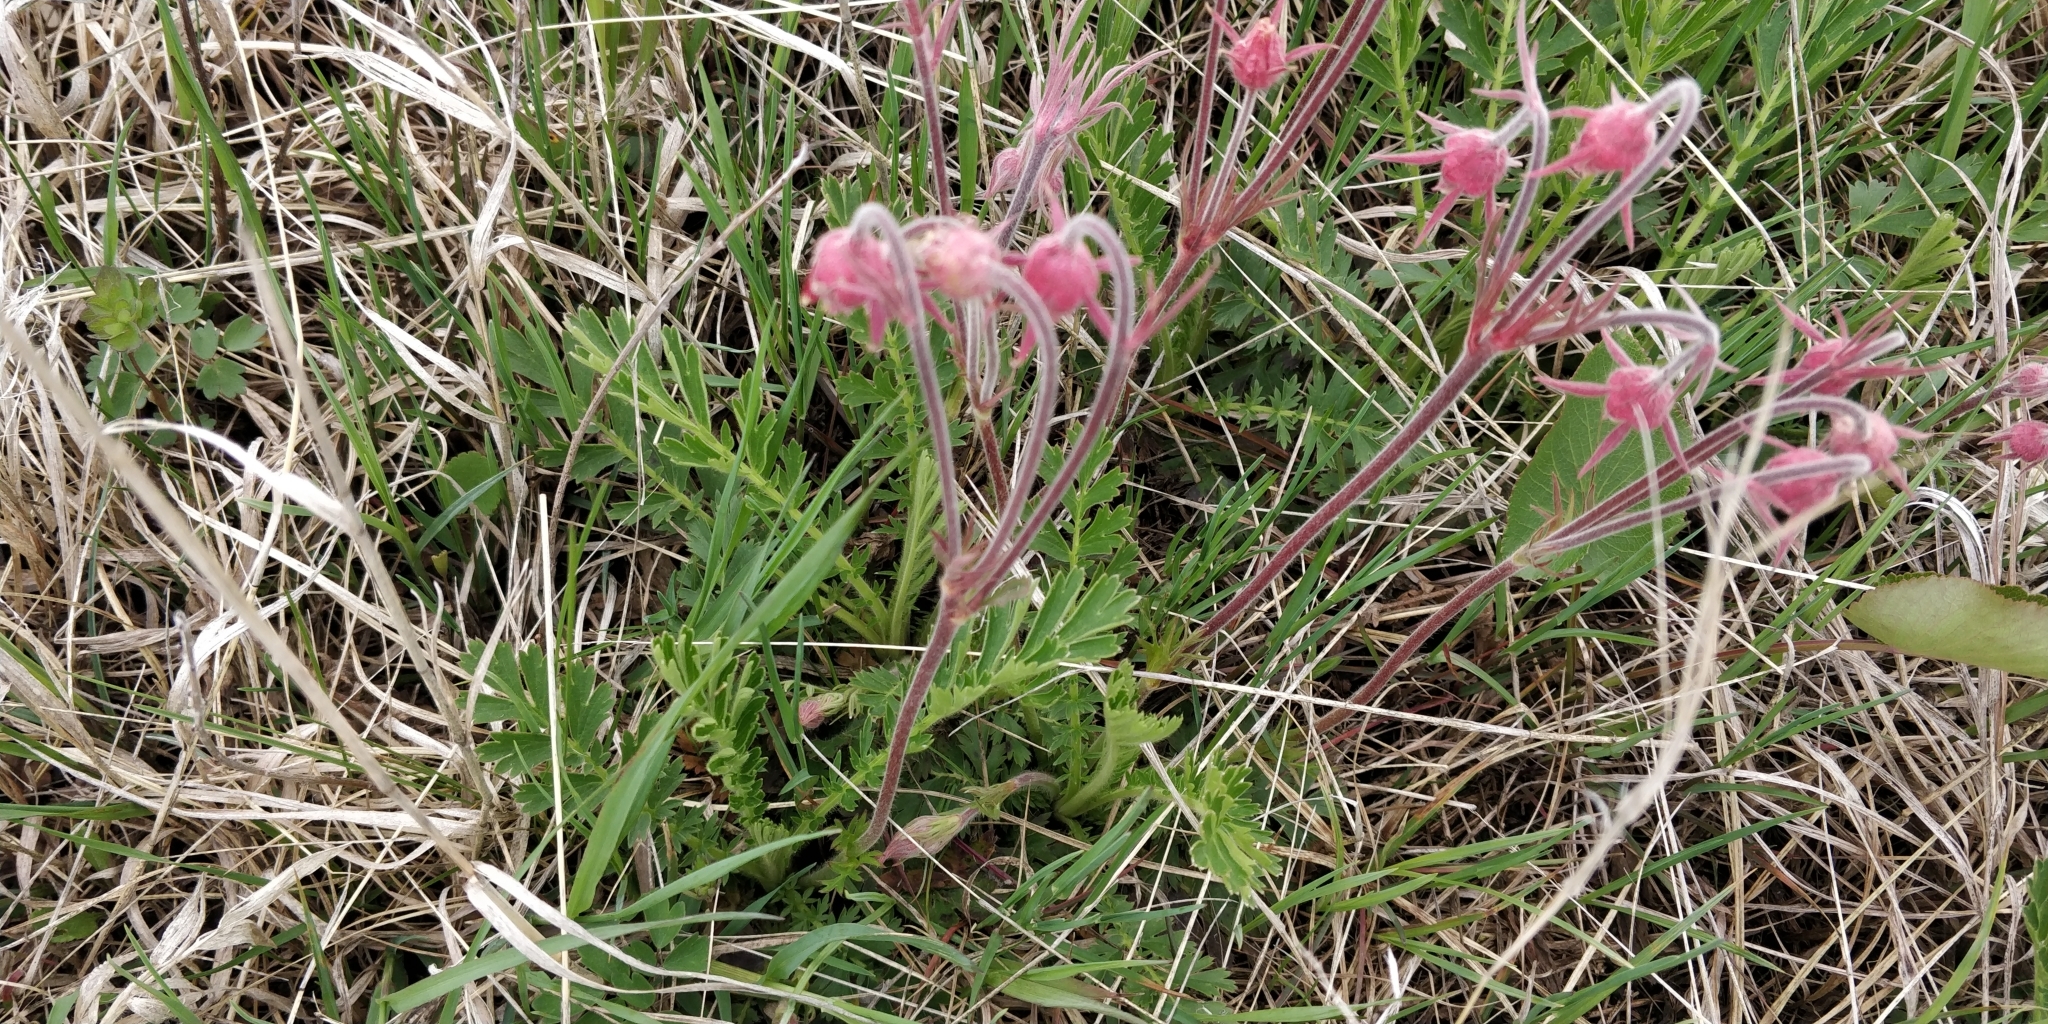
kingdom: Plantae
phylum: Tracheophyta
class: Magnoliopsida
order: Rosales
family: Rosaceae
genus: Geum
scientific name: Geum triflorum
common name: Old man's whiskers
